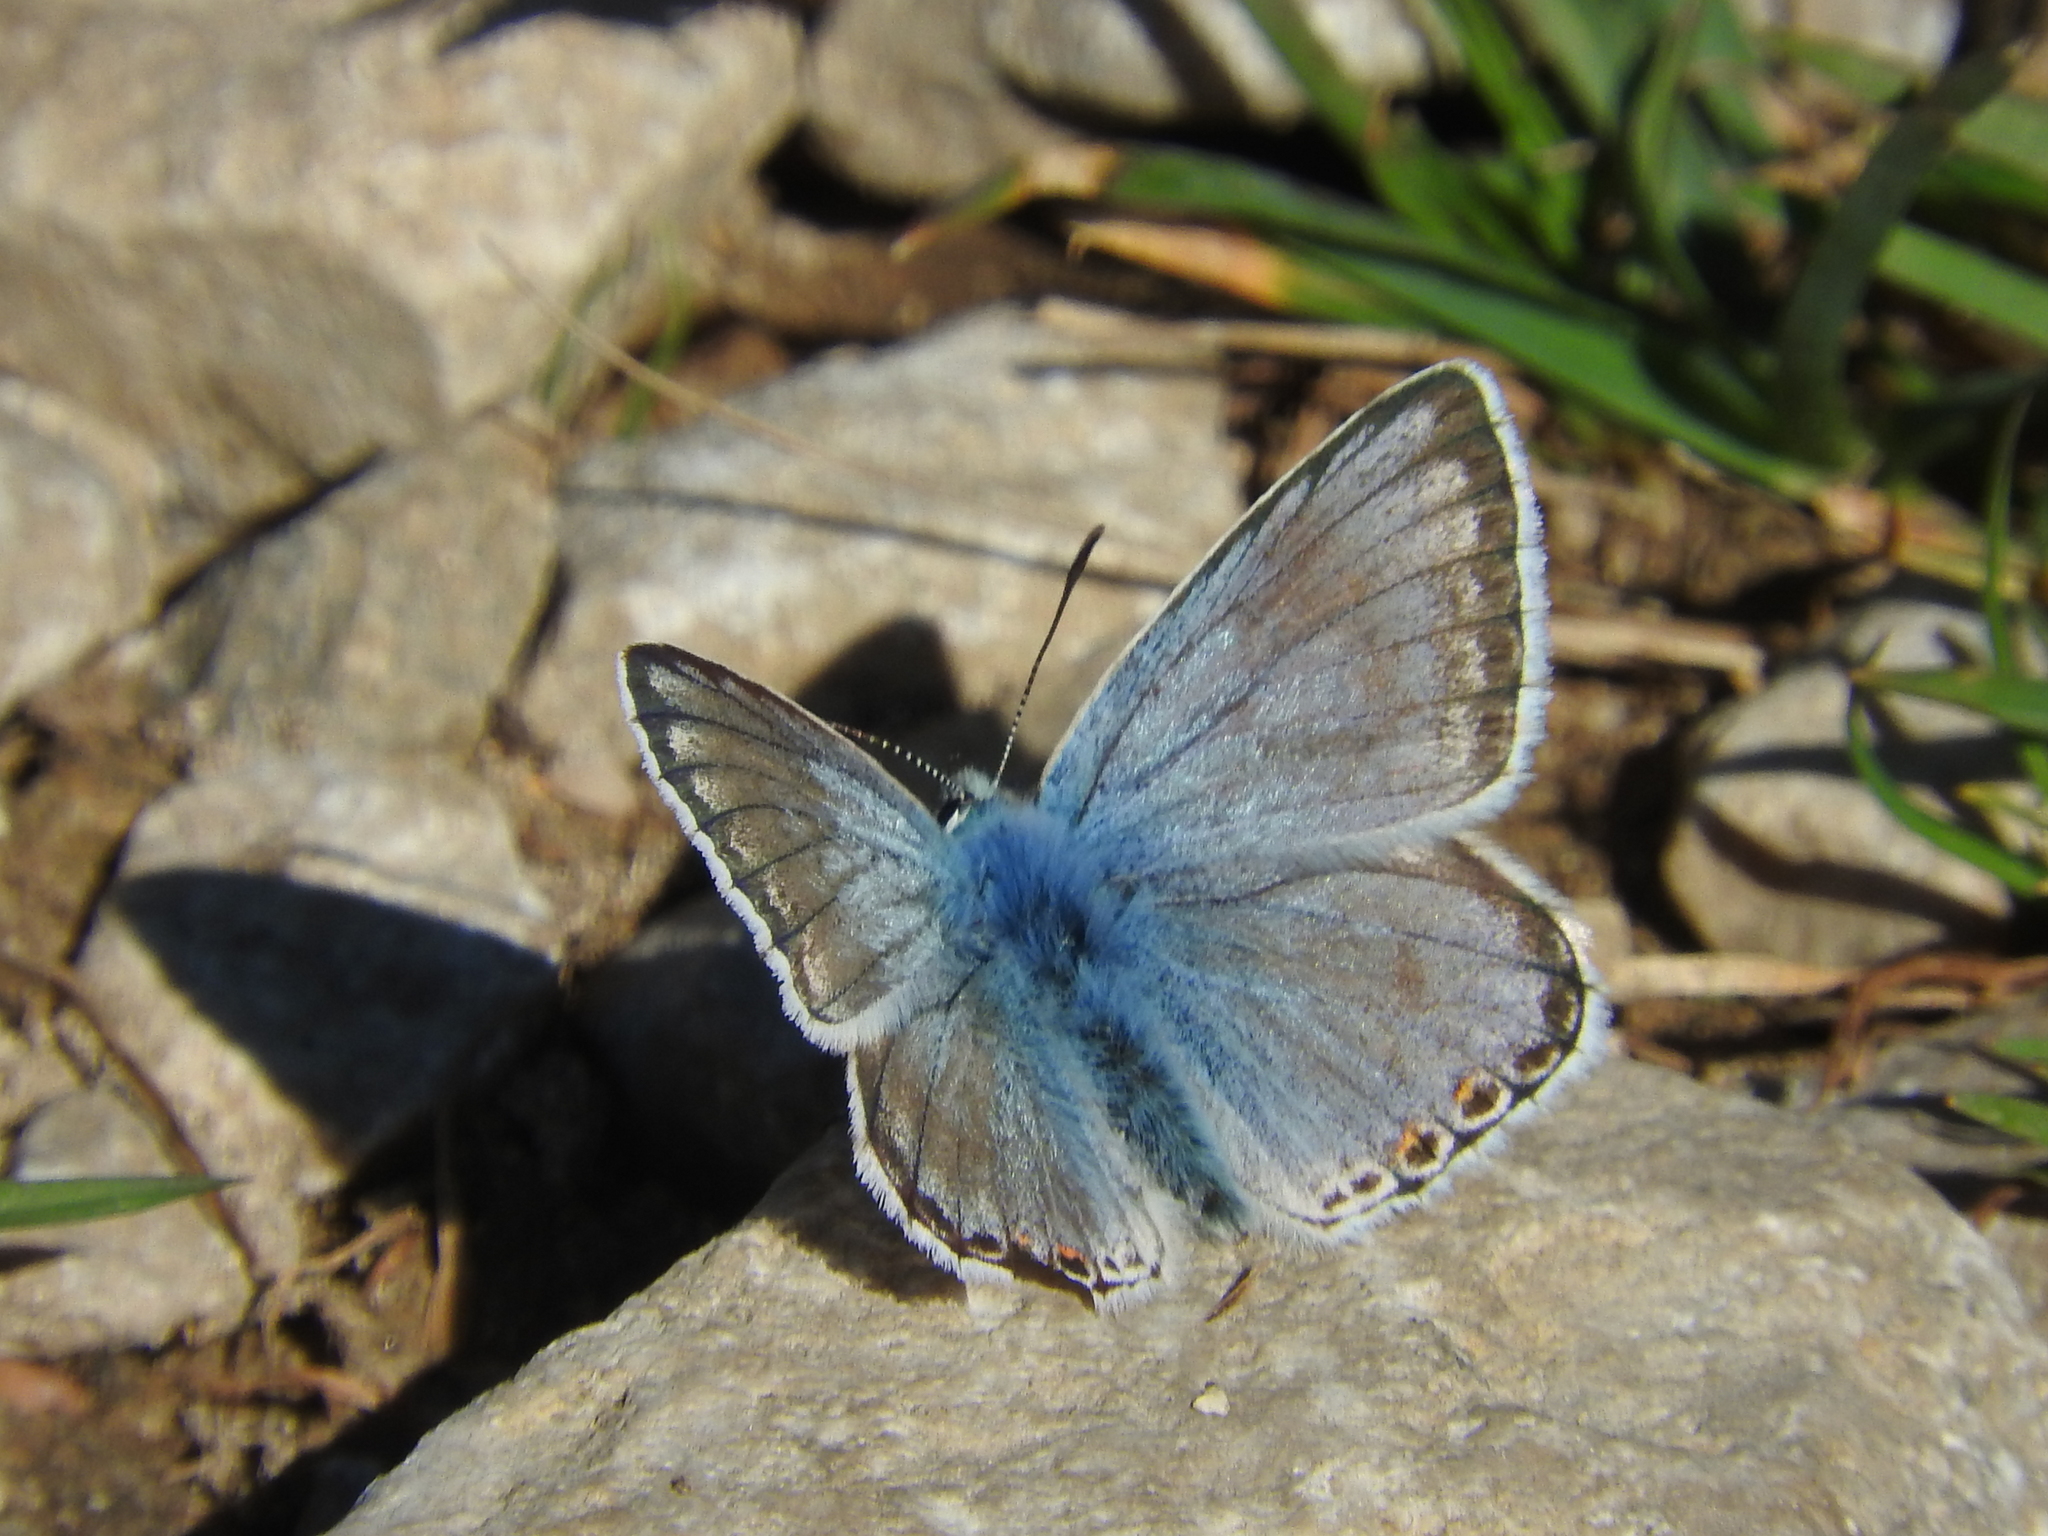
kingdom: Animalia
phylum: Arthropoda
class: Insecta
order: Lepidoptera
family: Lycaenidae
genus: Lysandra
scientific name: Lysandra coridon
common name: Chalkhill blue
